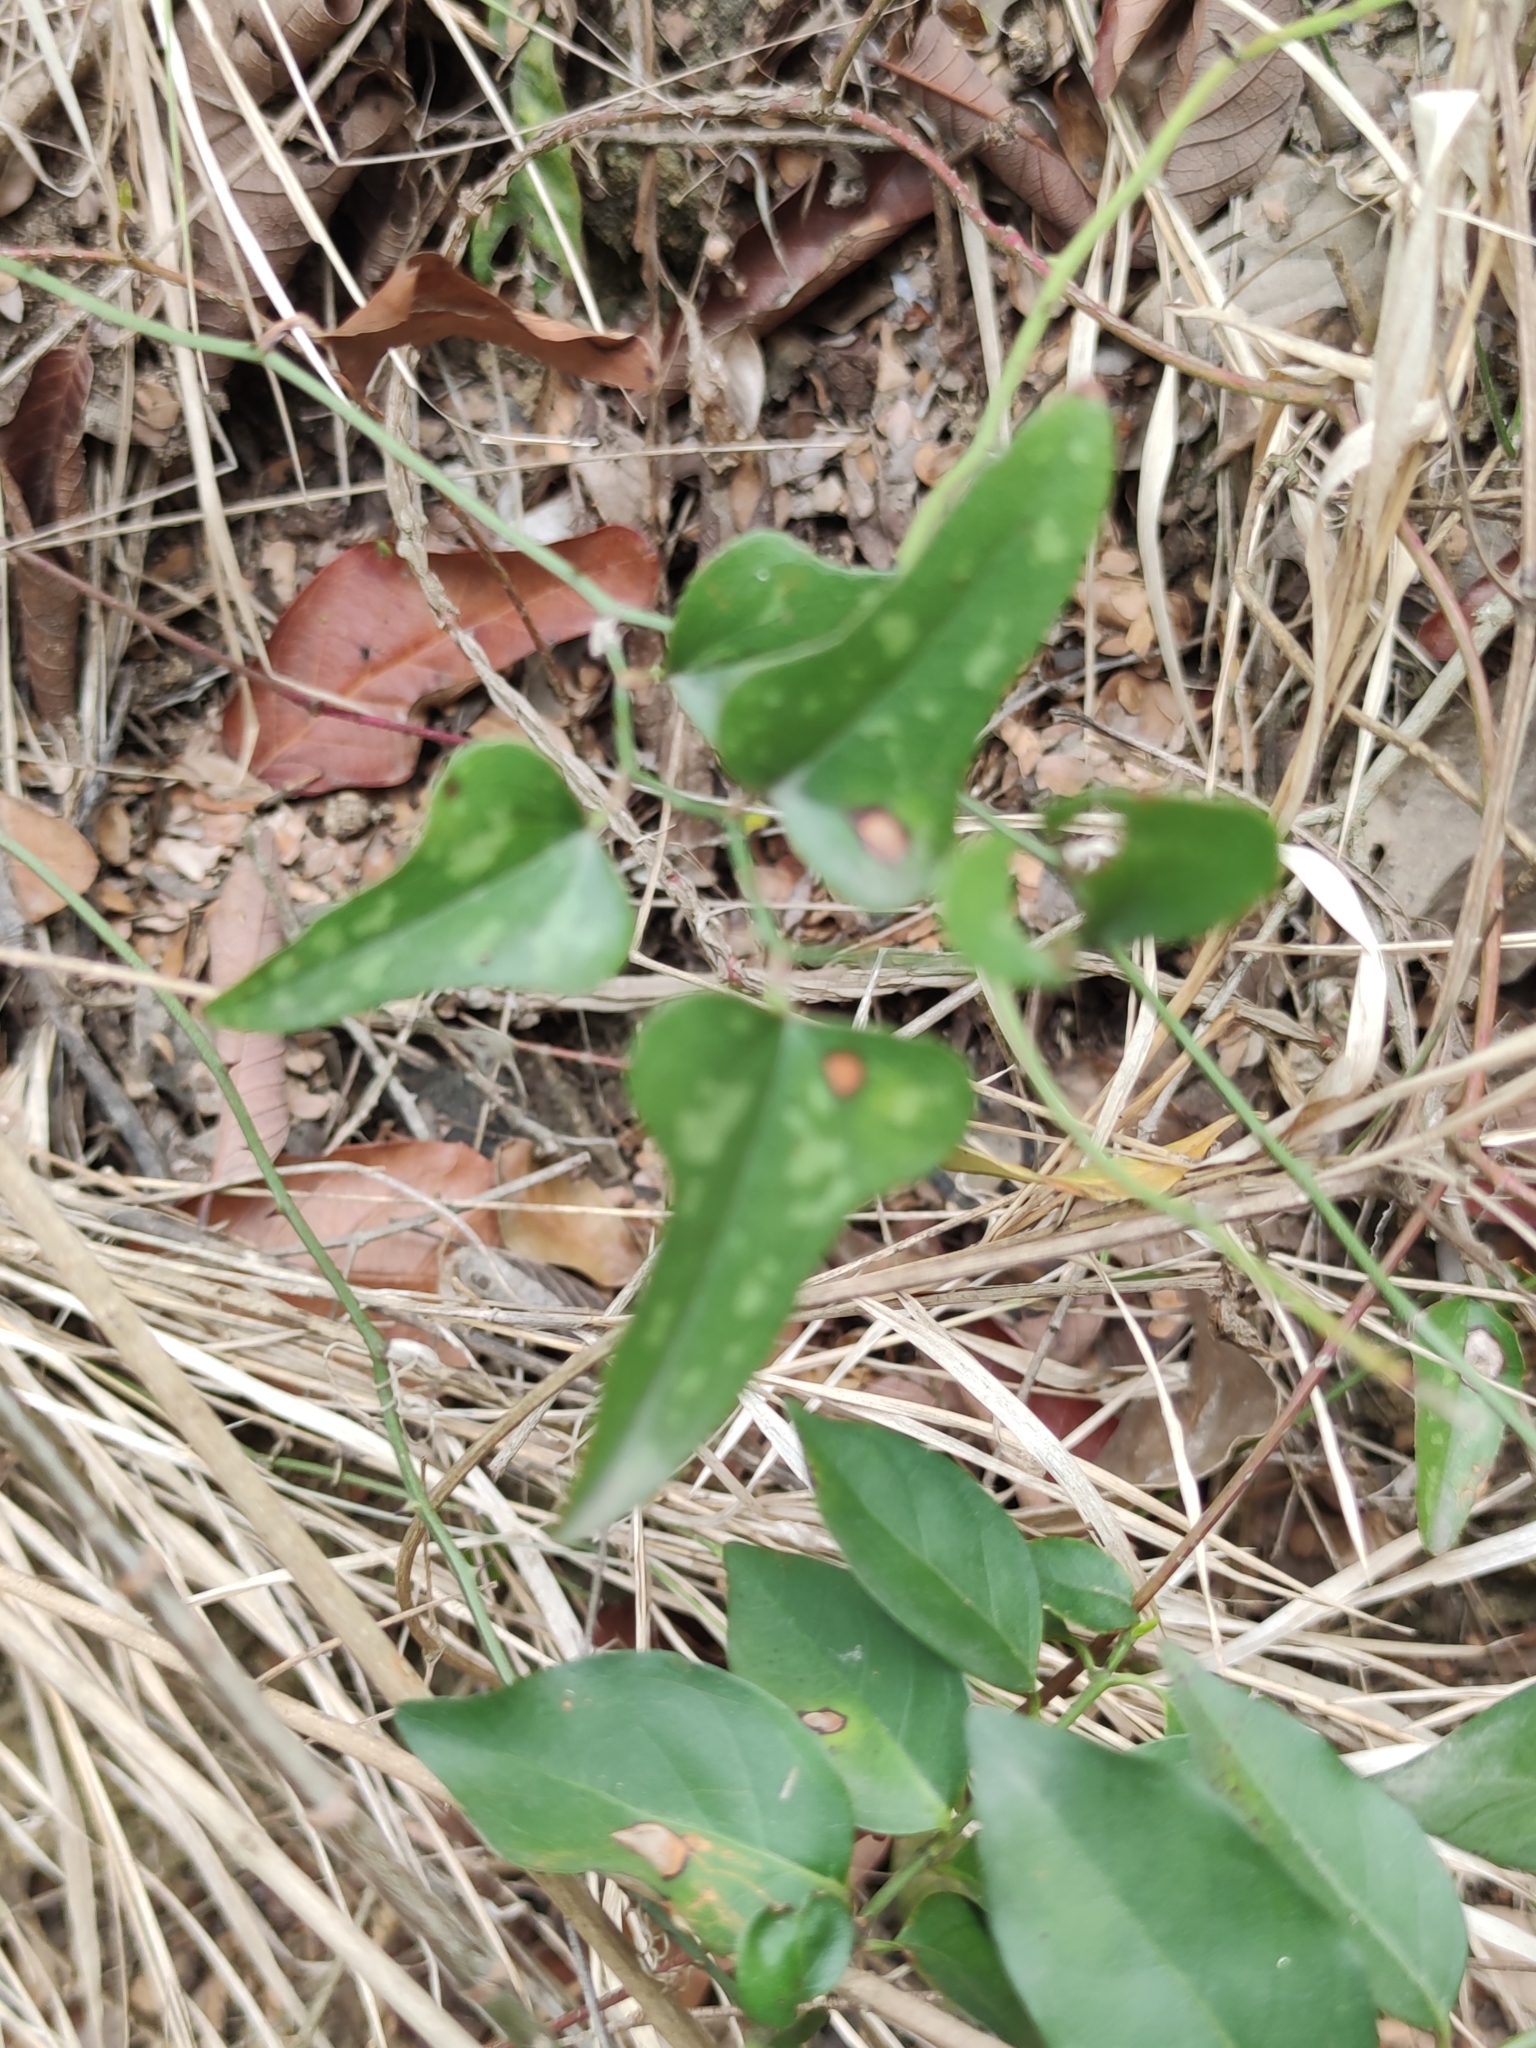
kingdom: Plantae
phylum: Tracheophyta
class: Liliopsida
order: Liliales
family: Smilacaceae
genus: Smilax
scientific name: Smilax bona-nox
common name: Catbrier
